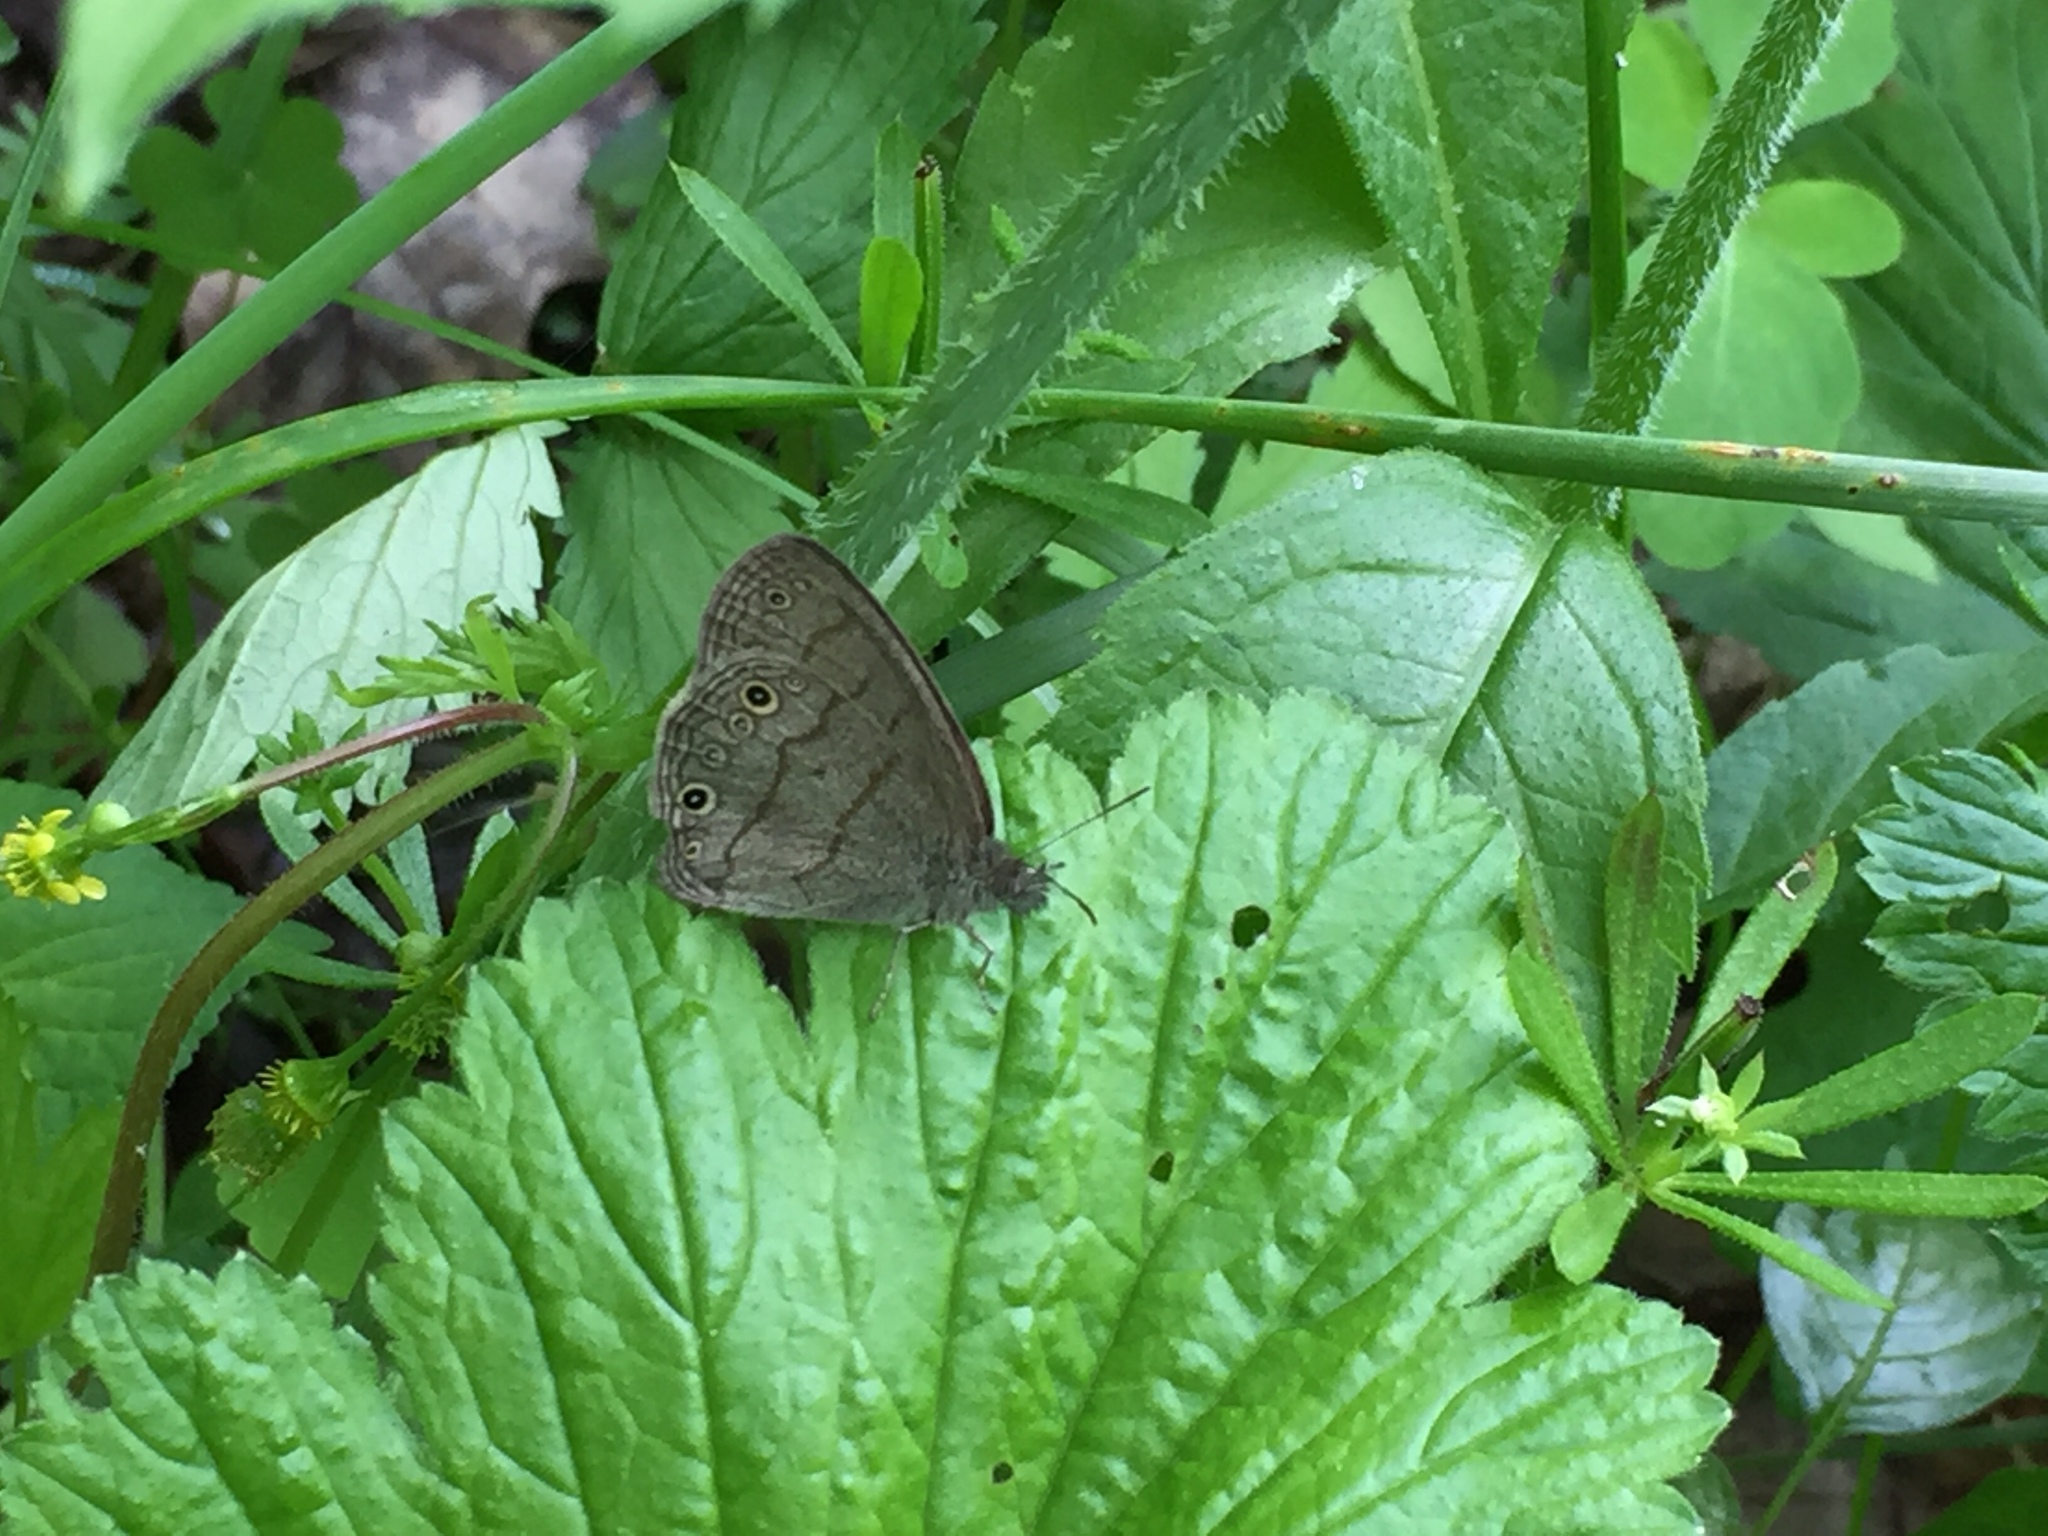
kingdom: Animalia
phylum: Arthropoda
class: Insecta
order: Lepidoptera
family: Nymphalidae
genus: Hermeuptychia
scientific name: Hermeuptychia hermes
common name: Hermes satyr
